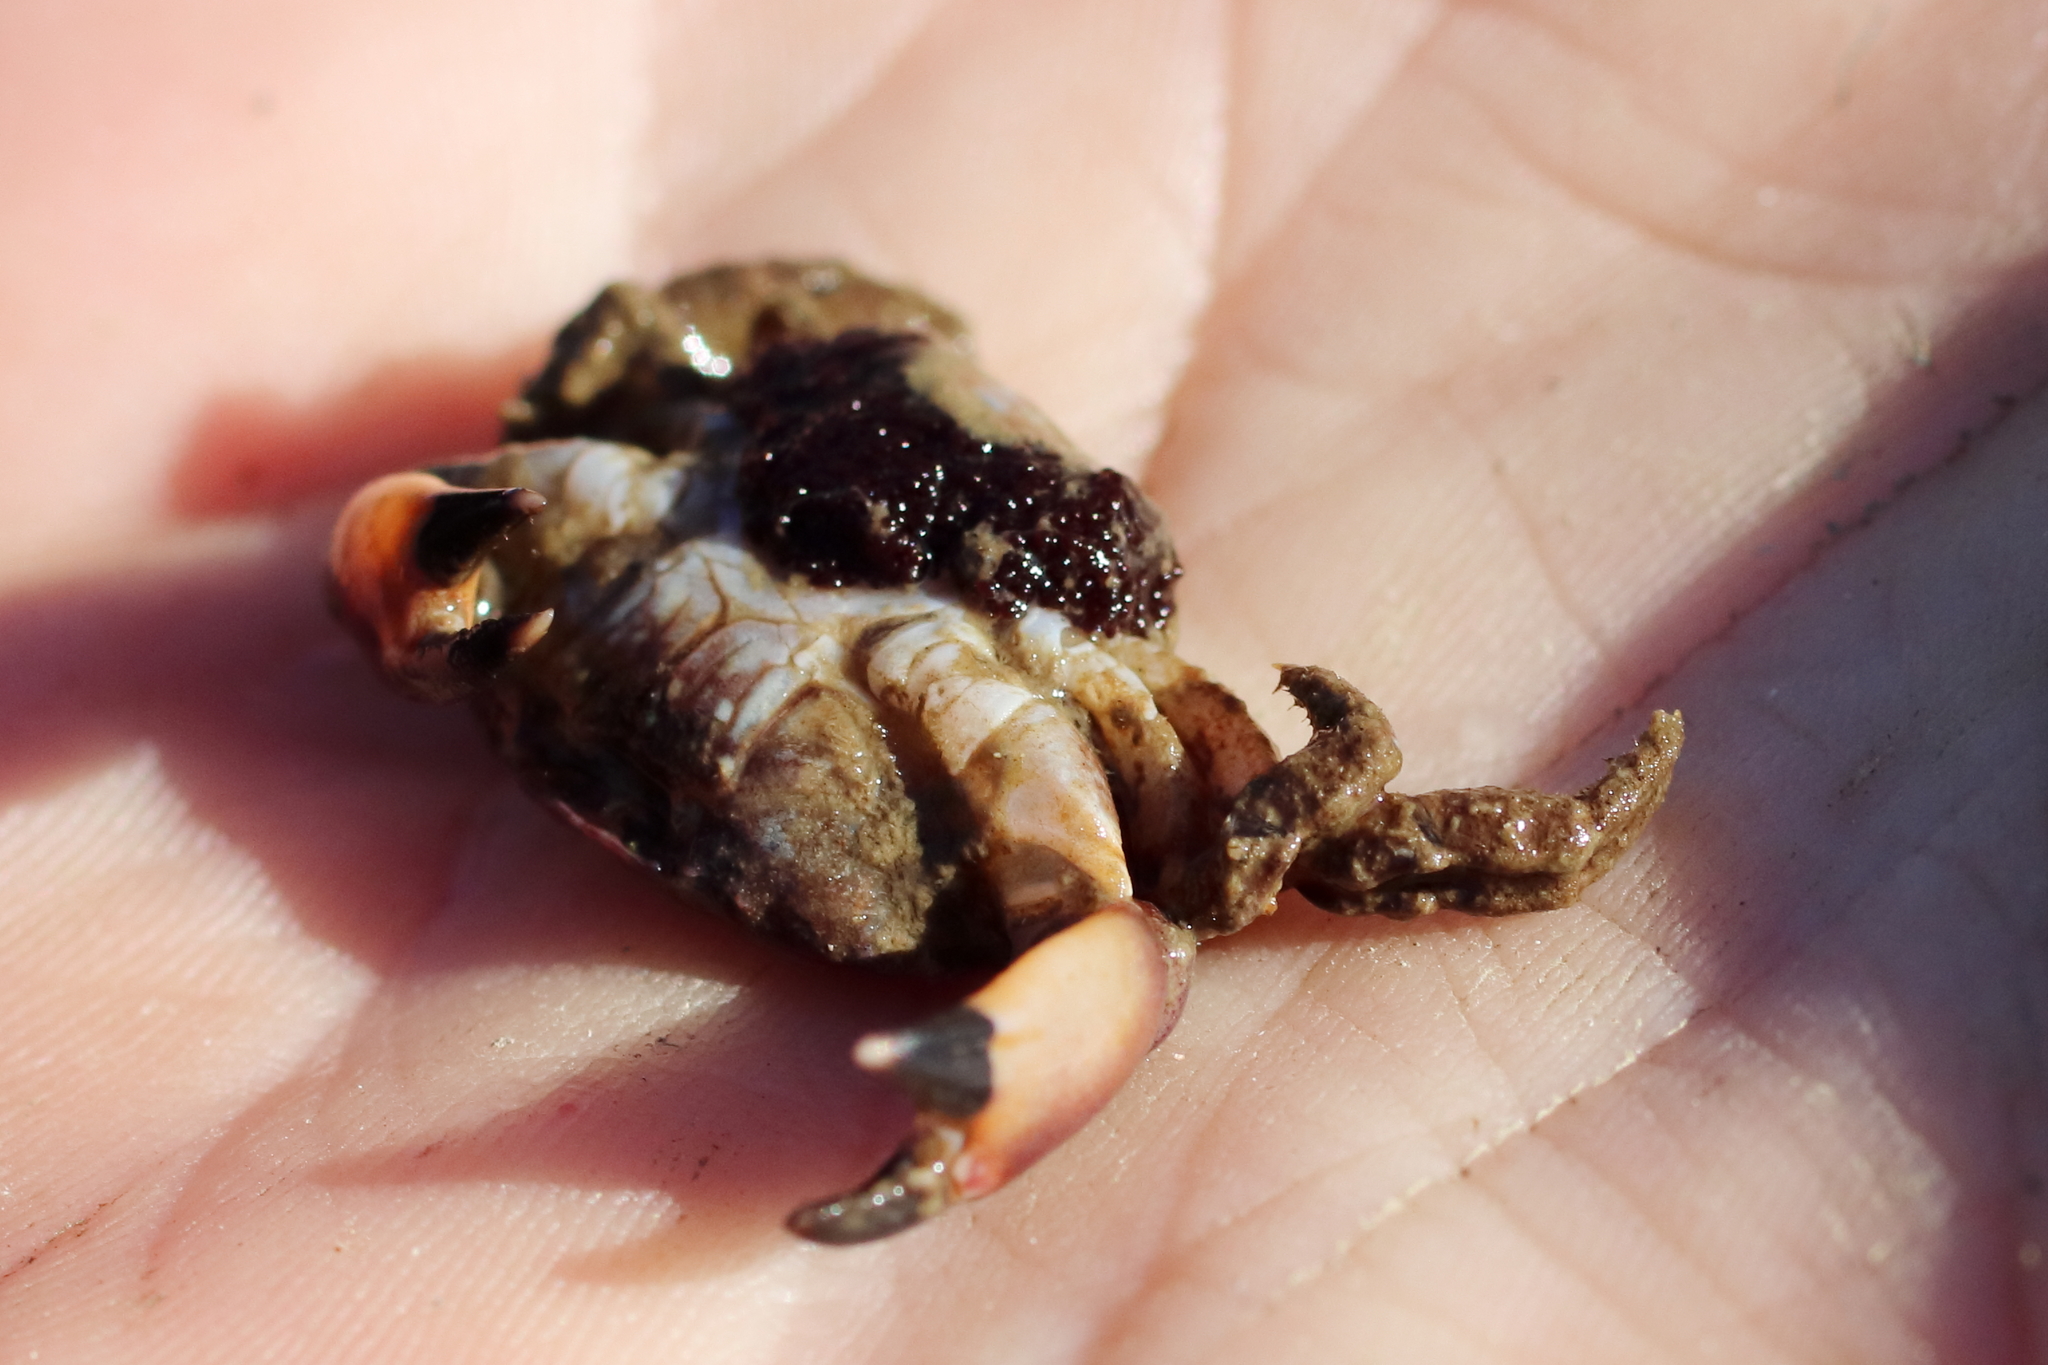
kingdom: Animalia
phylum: Arthropoda
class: Malacostraca
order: Decapoda
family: Panopeidae
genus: Lophopanopeus
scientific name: Lophopanopeus bellus
